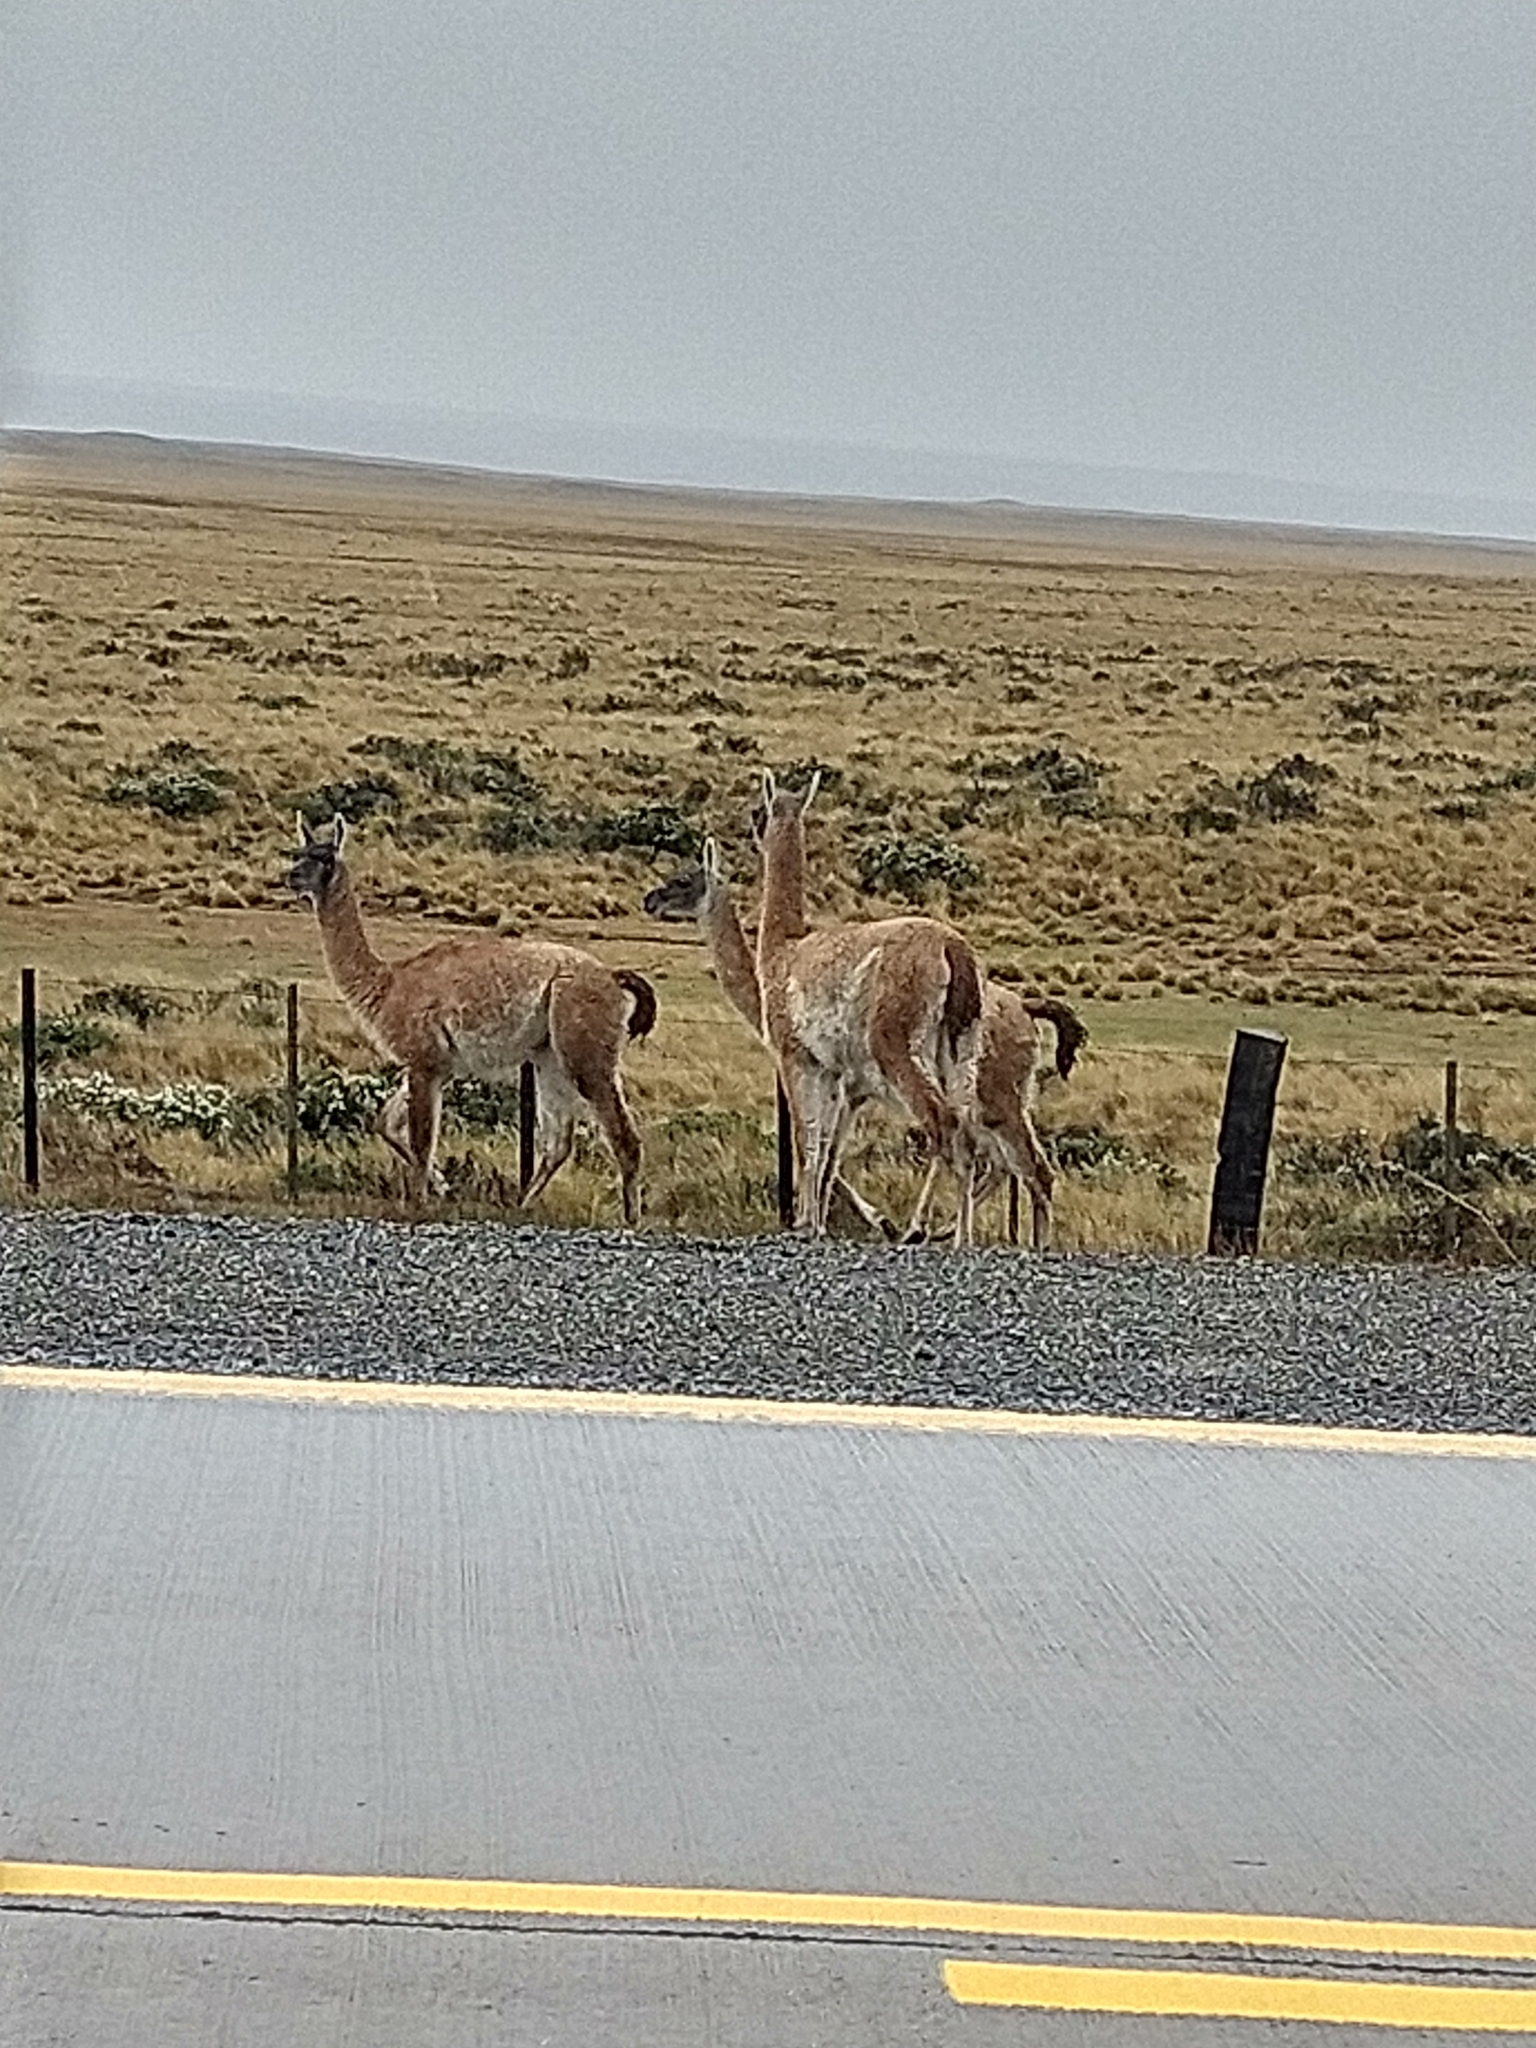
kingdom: Animalia
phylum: Chordata
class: Mammalia
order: Artiodactyla
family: Camelidae
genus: Lama
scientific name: Lama glama
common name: Llama
